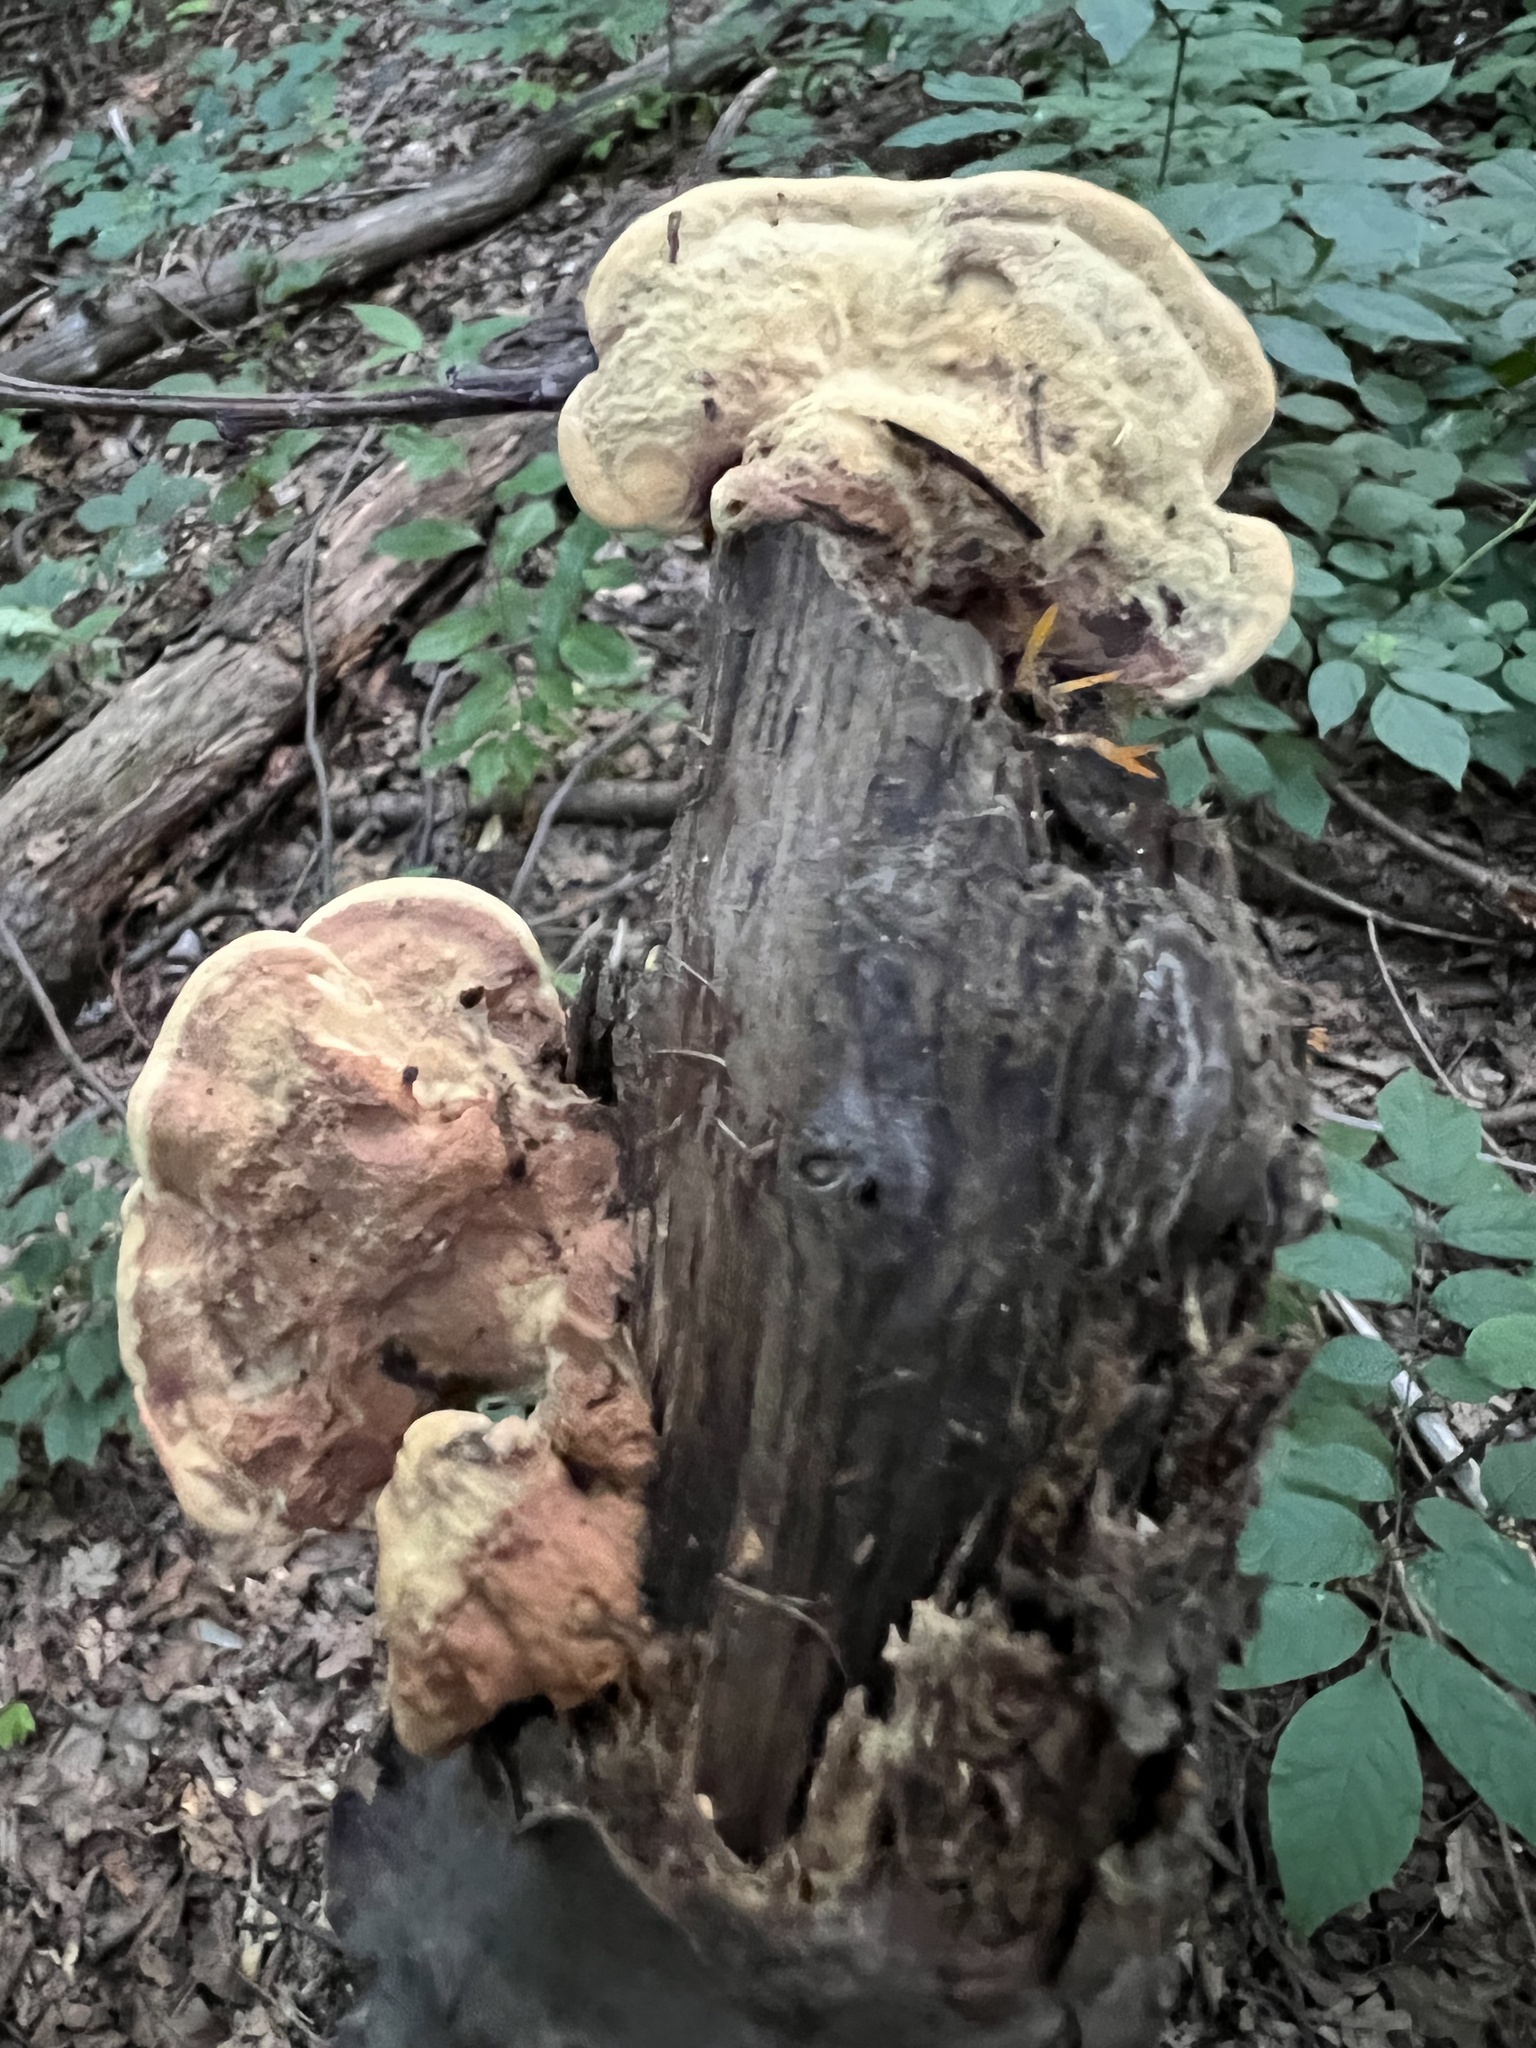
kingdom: Fungi
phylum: Basidiomycota
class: Agaricomycetes
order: Polyporales
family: Phanerochaetaceae
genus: Hapalopilus
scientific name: Hapalopilus rutilans
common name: Tender nesting polypore
